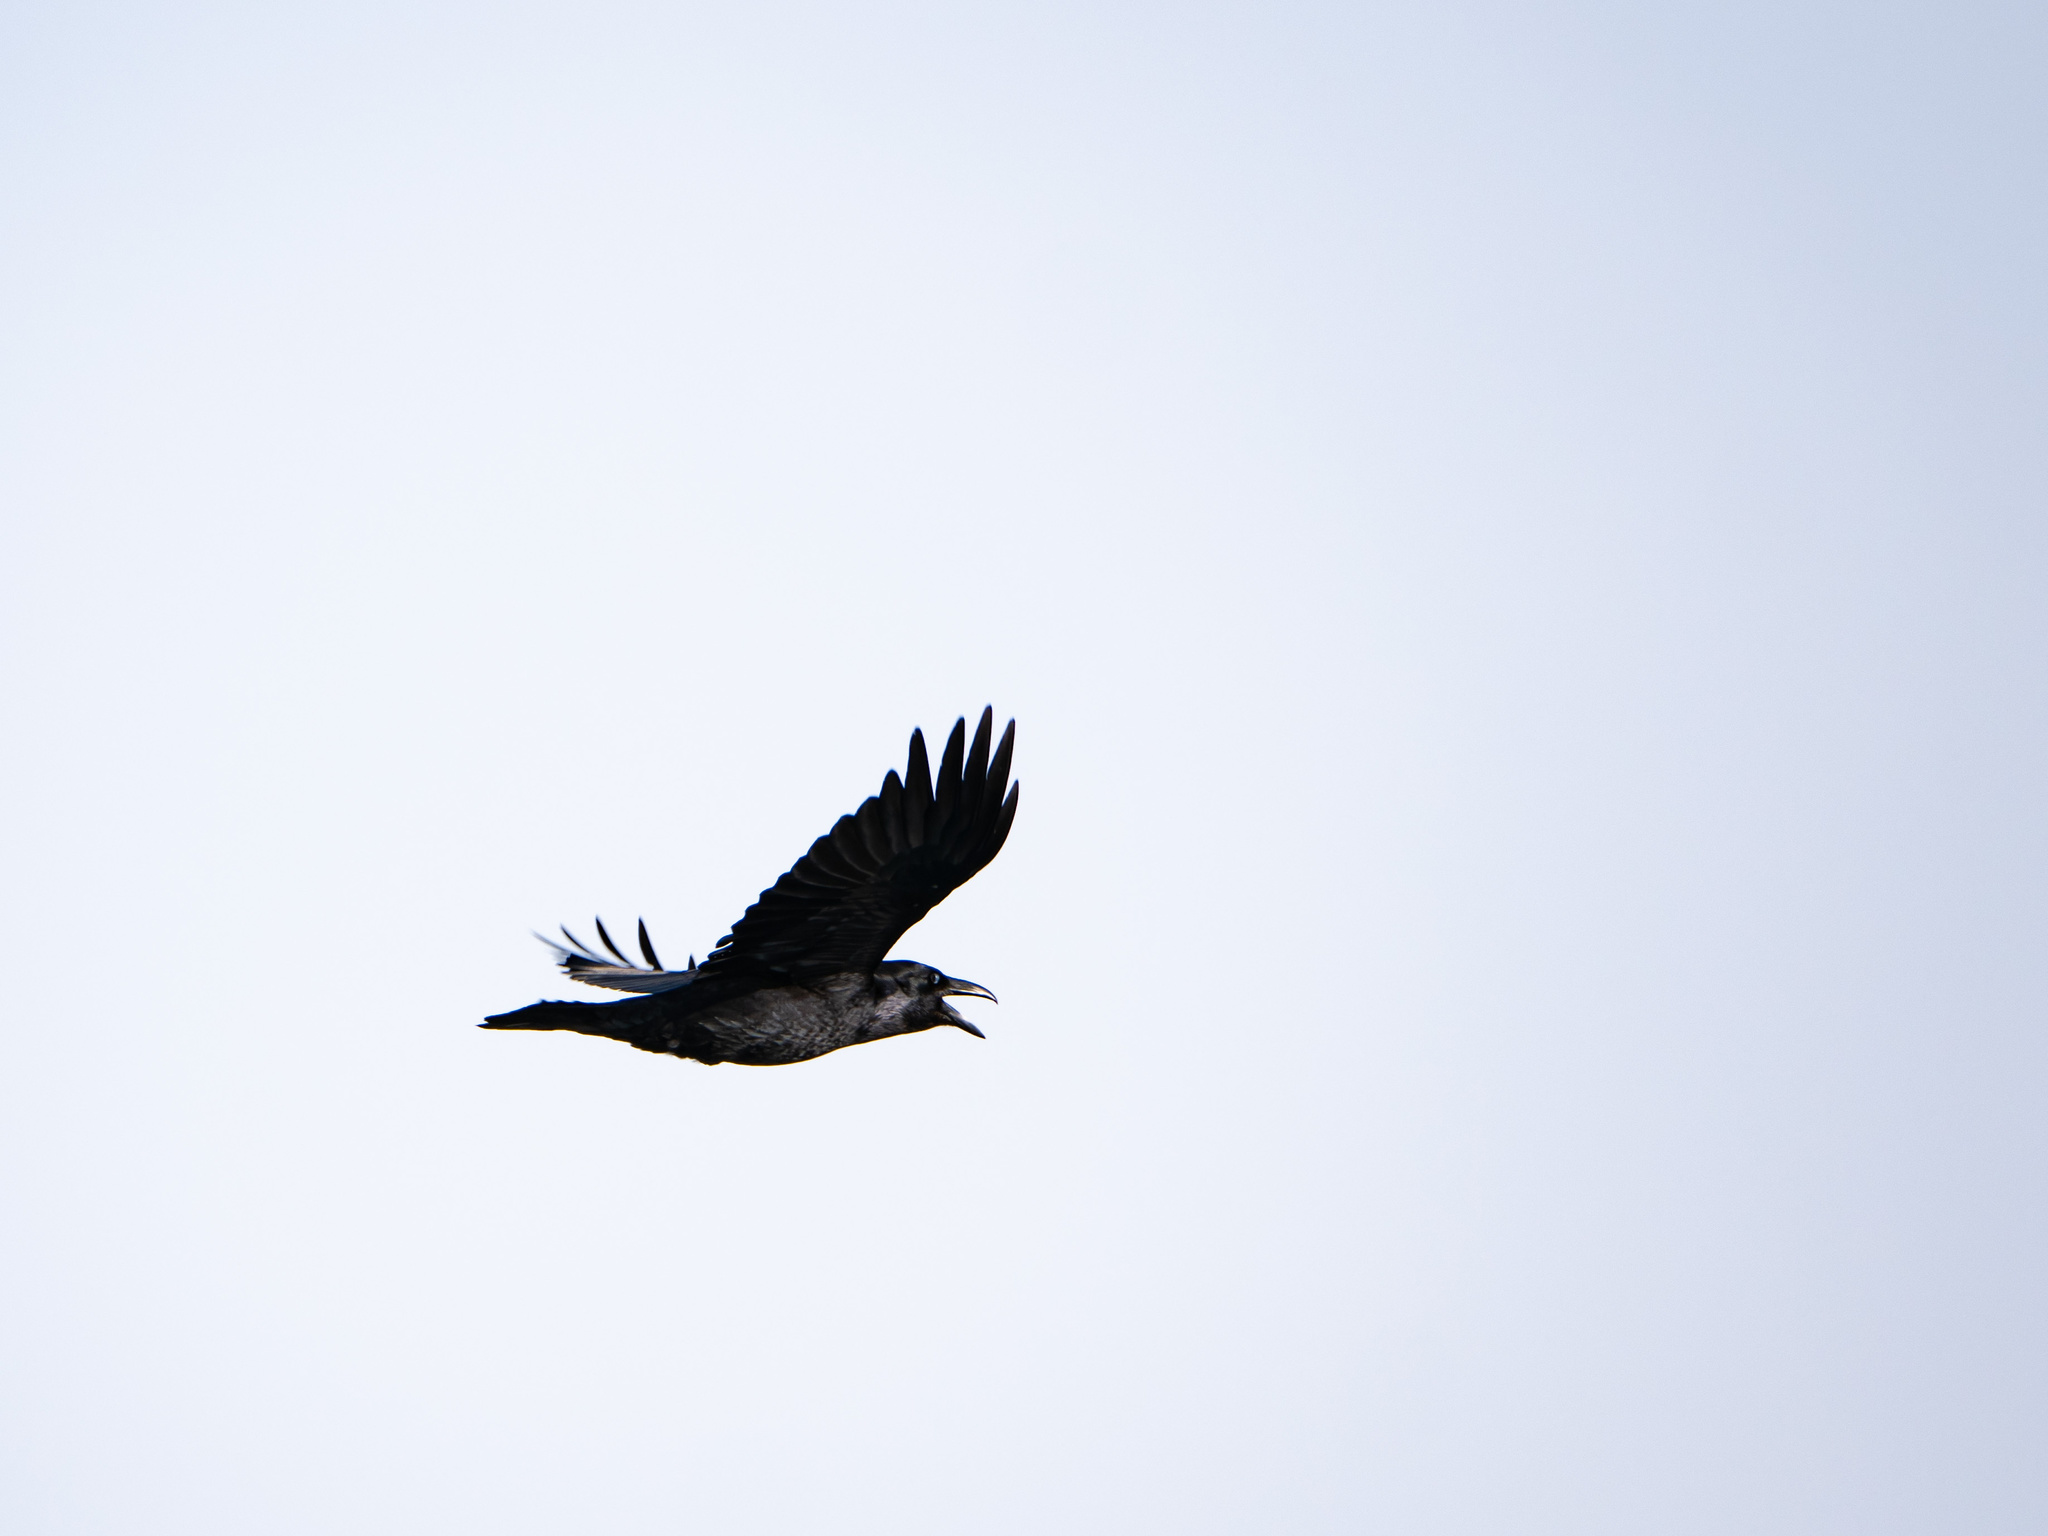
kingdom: Animalia
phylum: Chordata
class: Aves
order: Passeriformes
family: Corvidae
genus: Corvus
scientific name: Corvus corax
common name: Common raven
